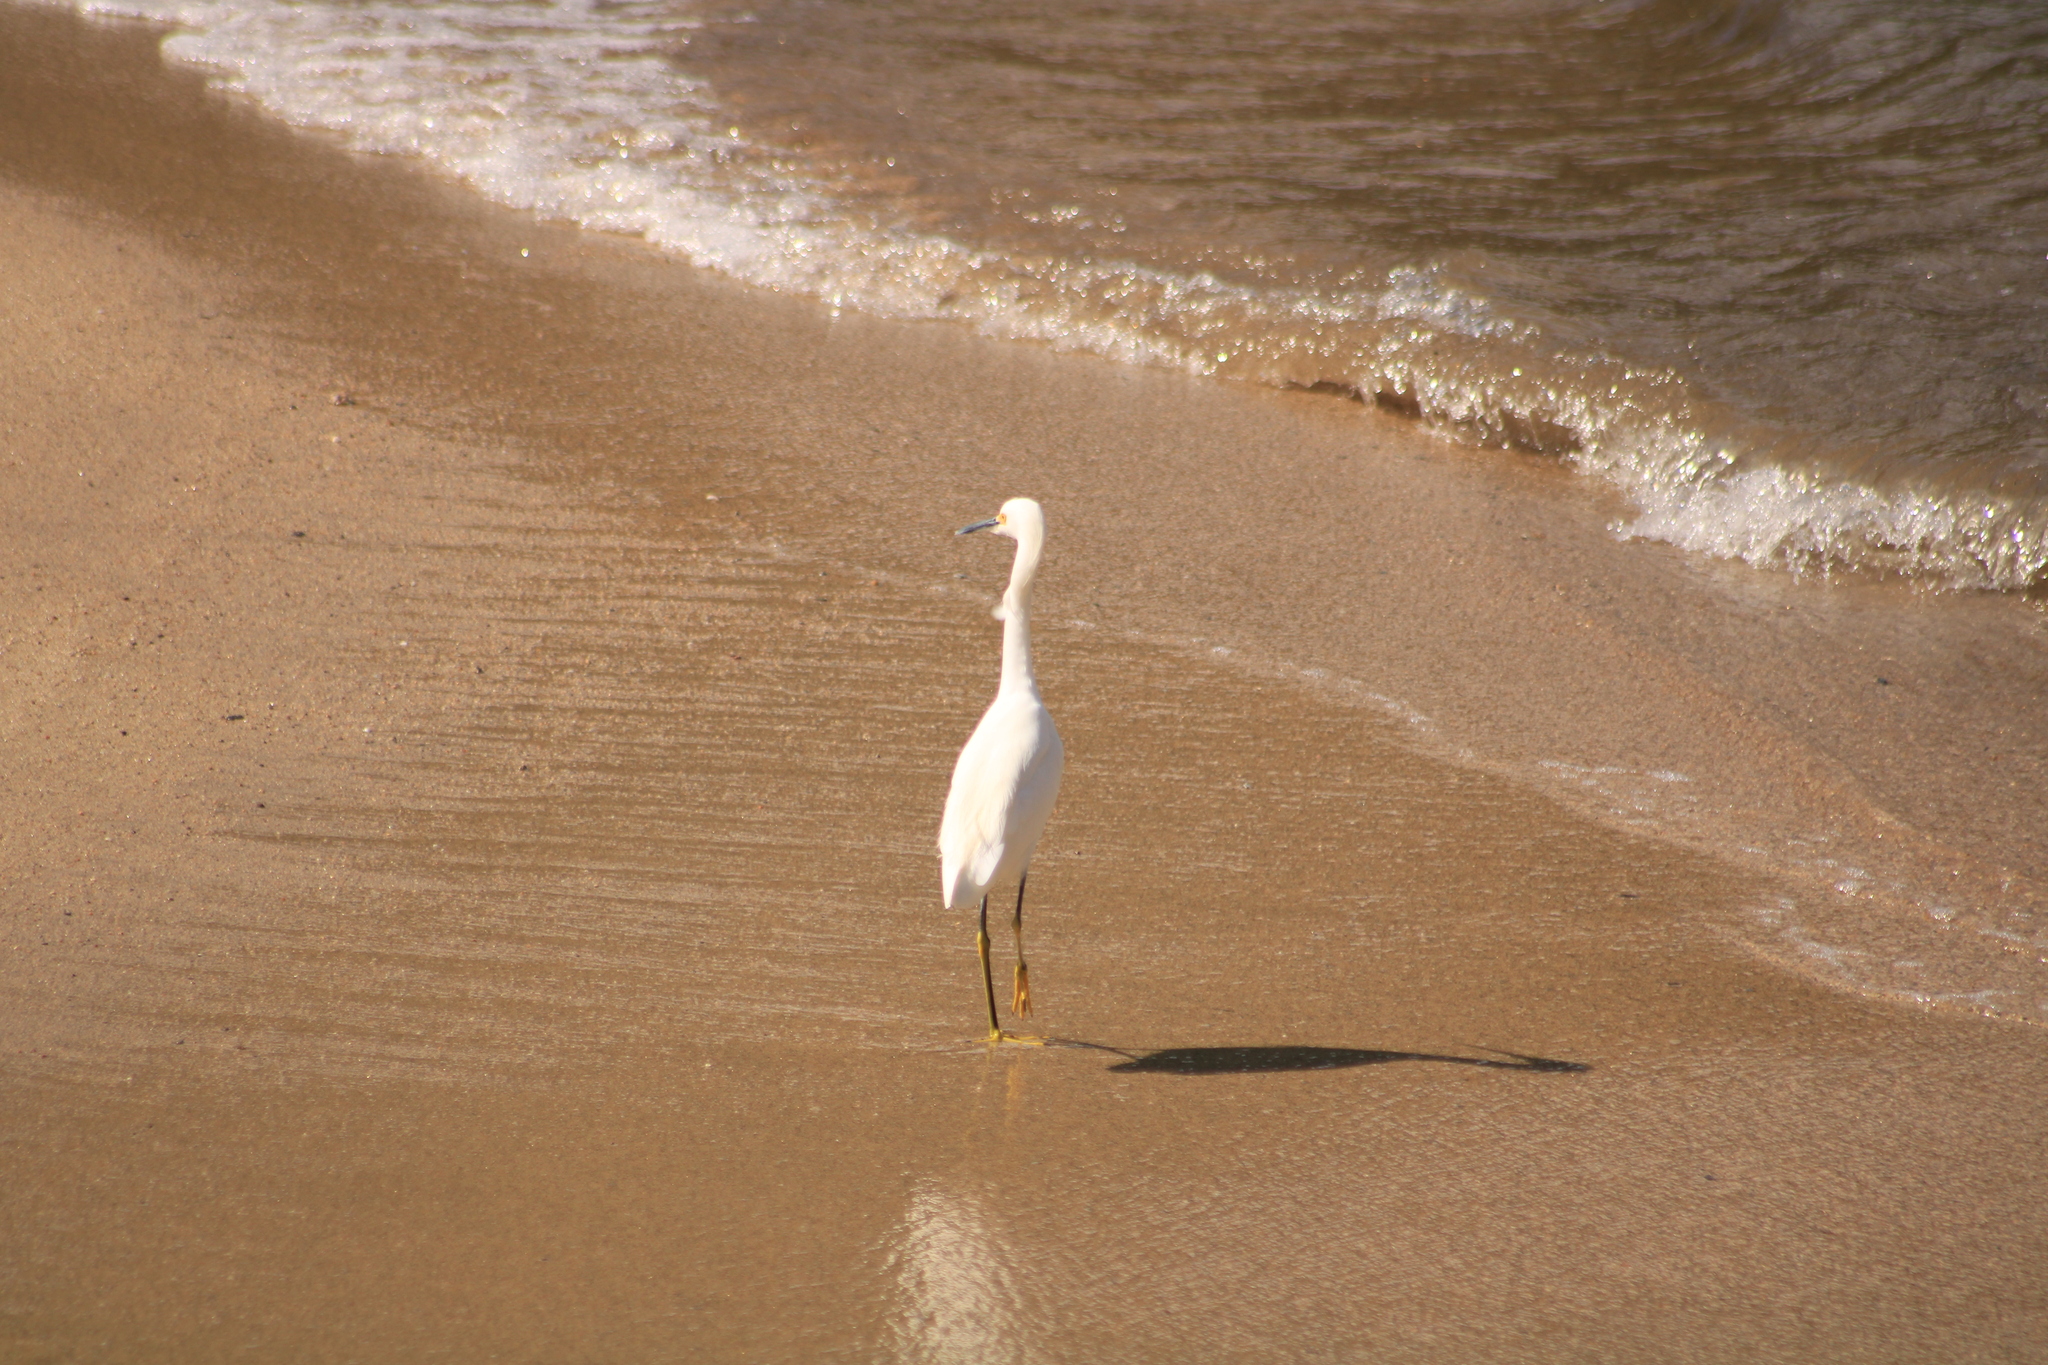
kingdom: Animalia
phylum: Chordata
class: Aves
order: Pelecaniformes
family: Ardeidae
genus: Egretta
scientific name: Egretta thula
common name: Snowy egret
